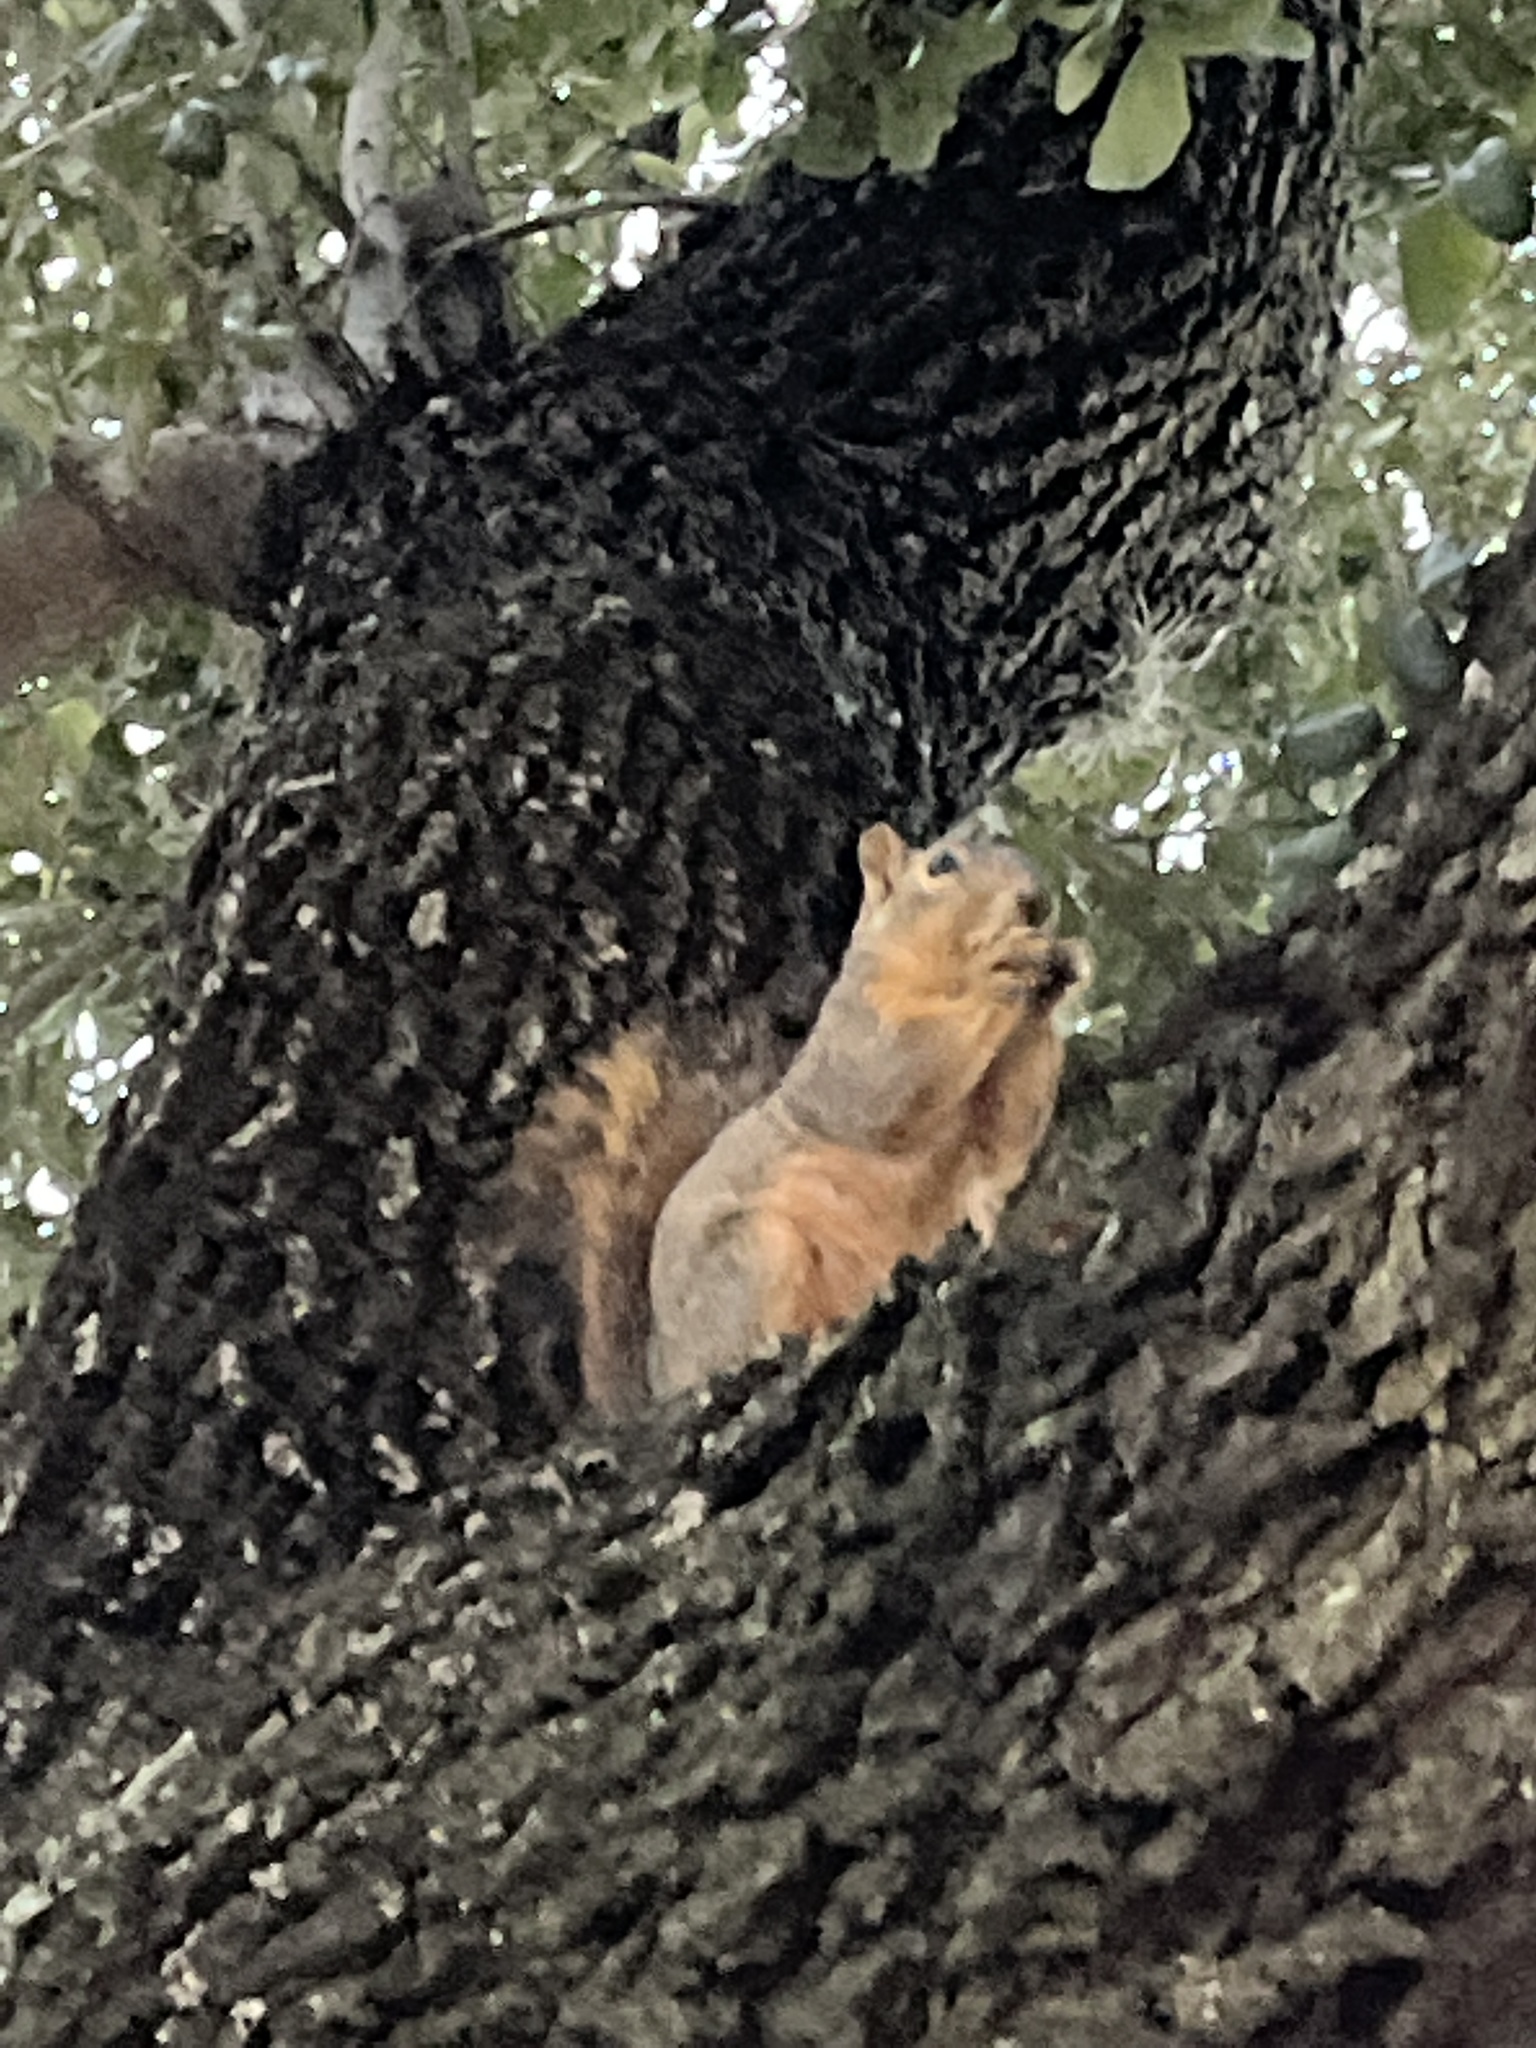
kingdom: Animalia
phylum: Chordata
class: Mammalia
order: Rodentia
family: Sciuridae
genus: Sciurus
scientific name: Sciurus niger
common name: Fox squirrel
